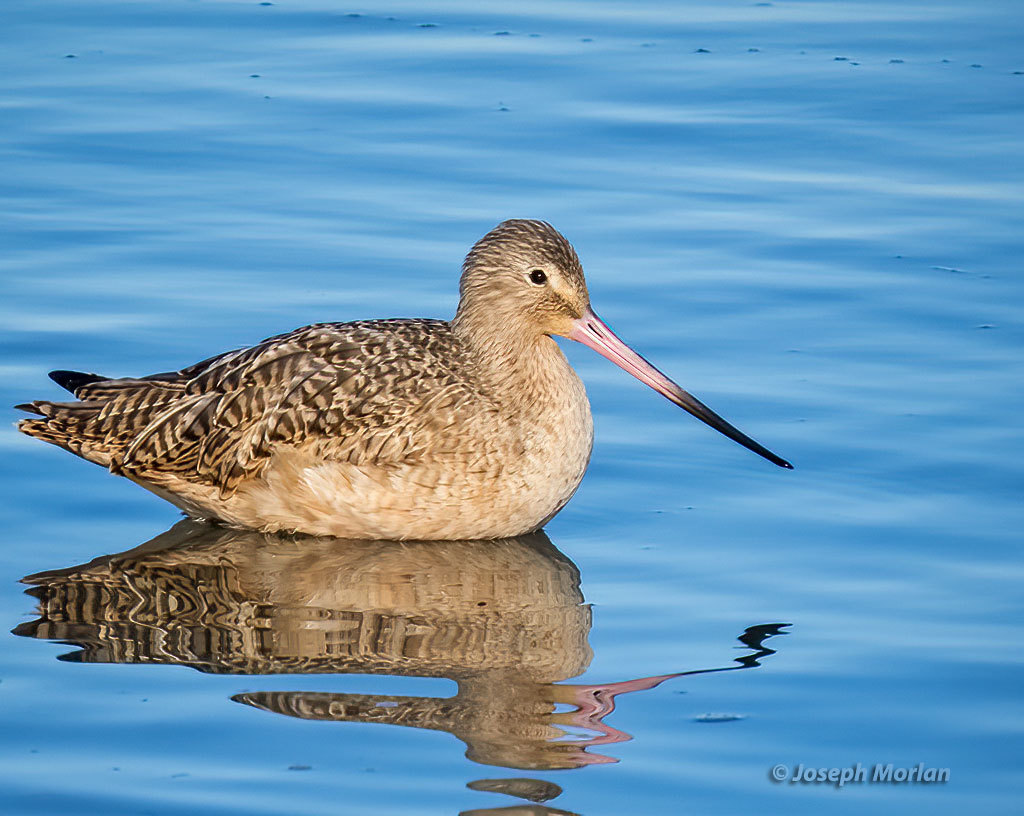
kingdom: Animalia
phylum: Chordata
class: Aves
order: Charadriiformes
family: Scolopacidae
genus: Limosa
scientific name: Limosa fedoa
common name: Marbled godwit
